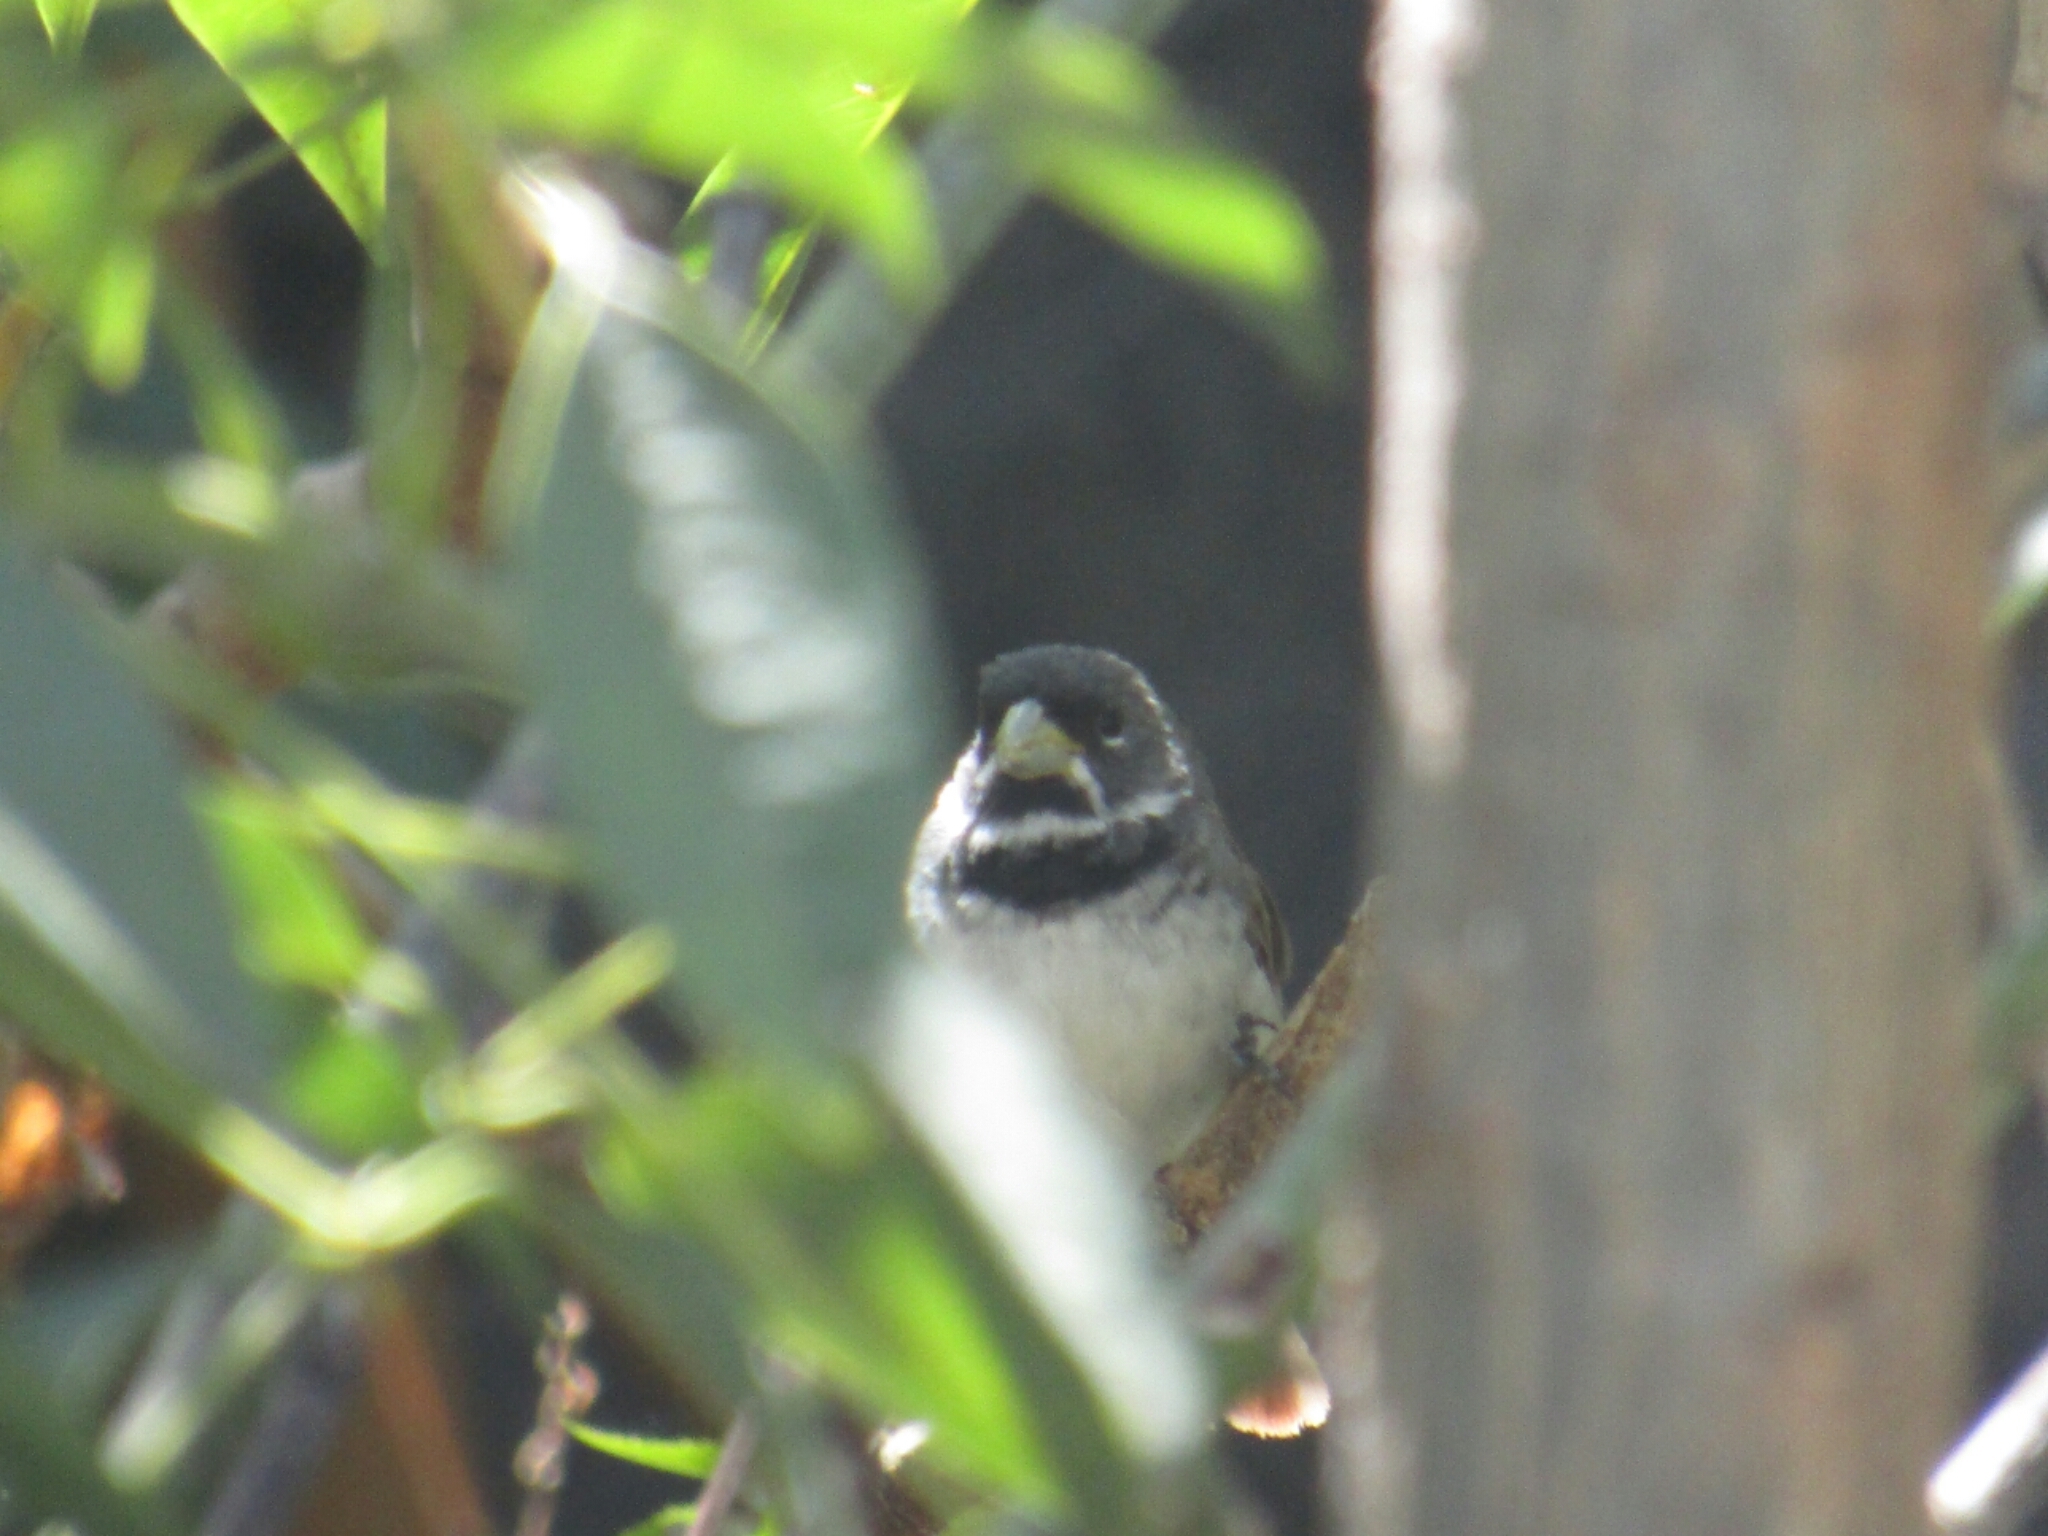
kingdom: Animalia
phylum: Chordata
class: Aves
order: Passeriformes
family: Thraupidae
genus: Sporophila
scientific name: Sporophila caerulescens
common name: Double-collared seedeater
